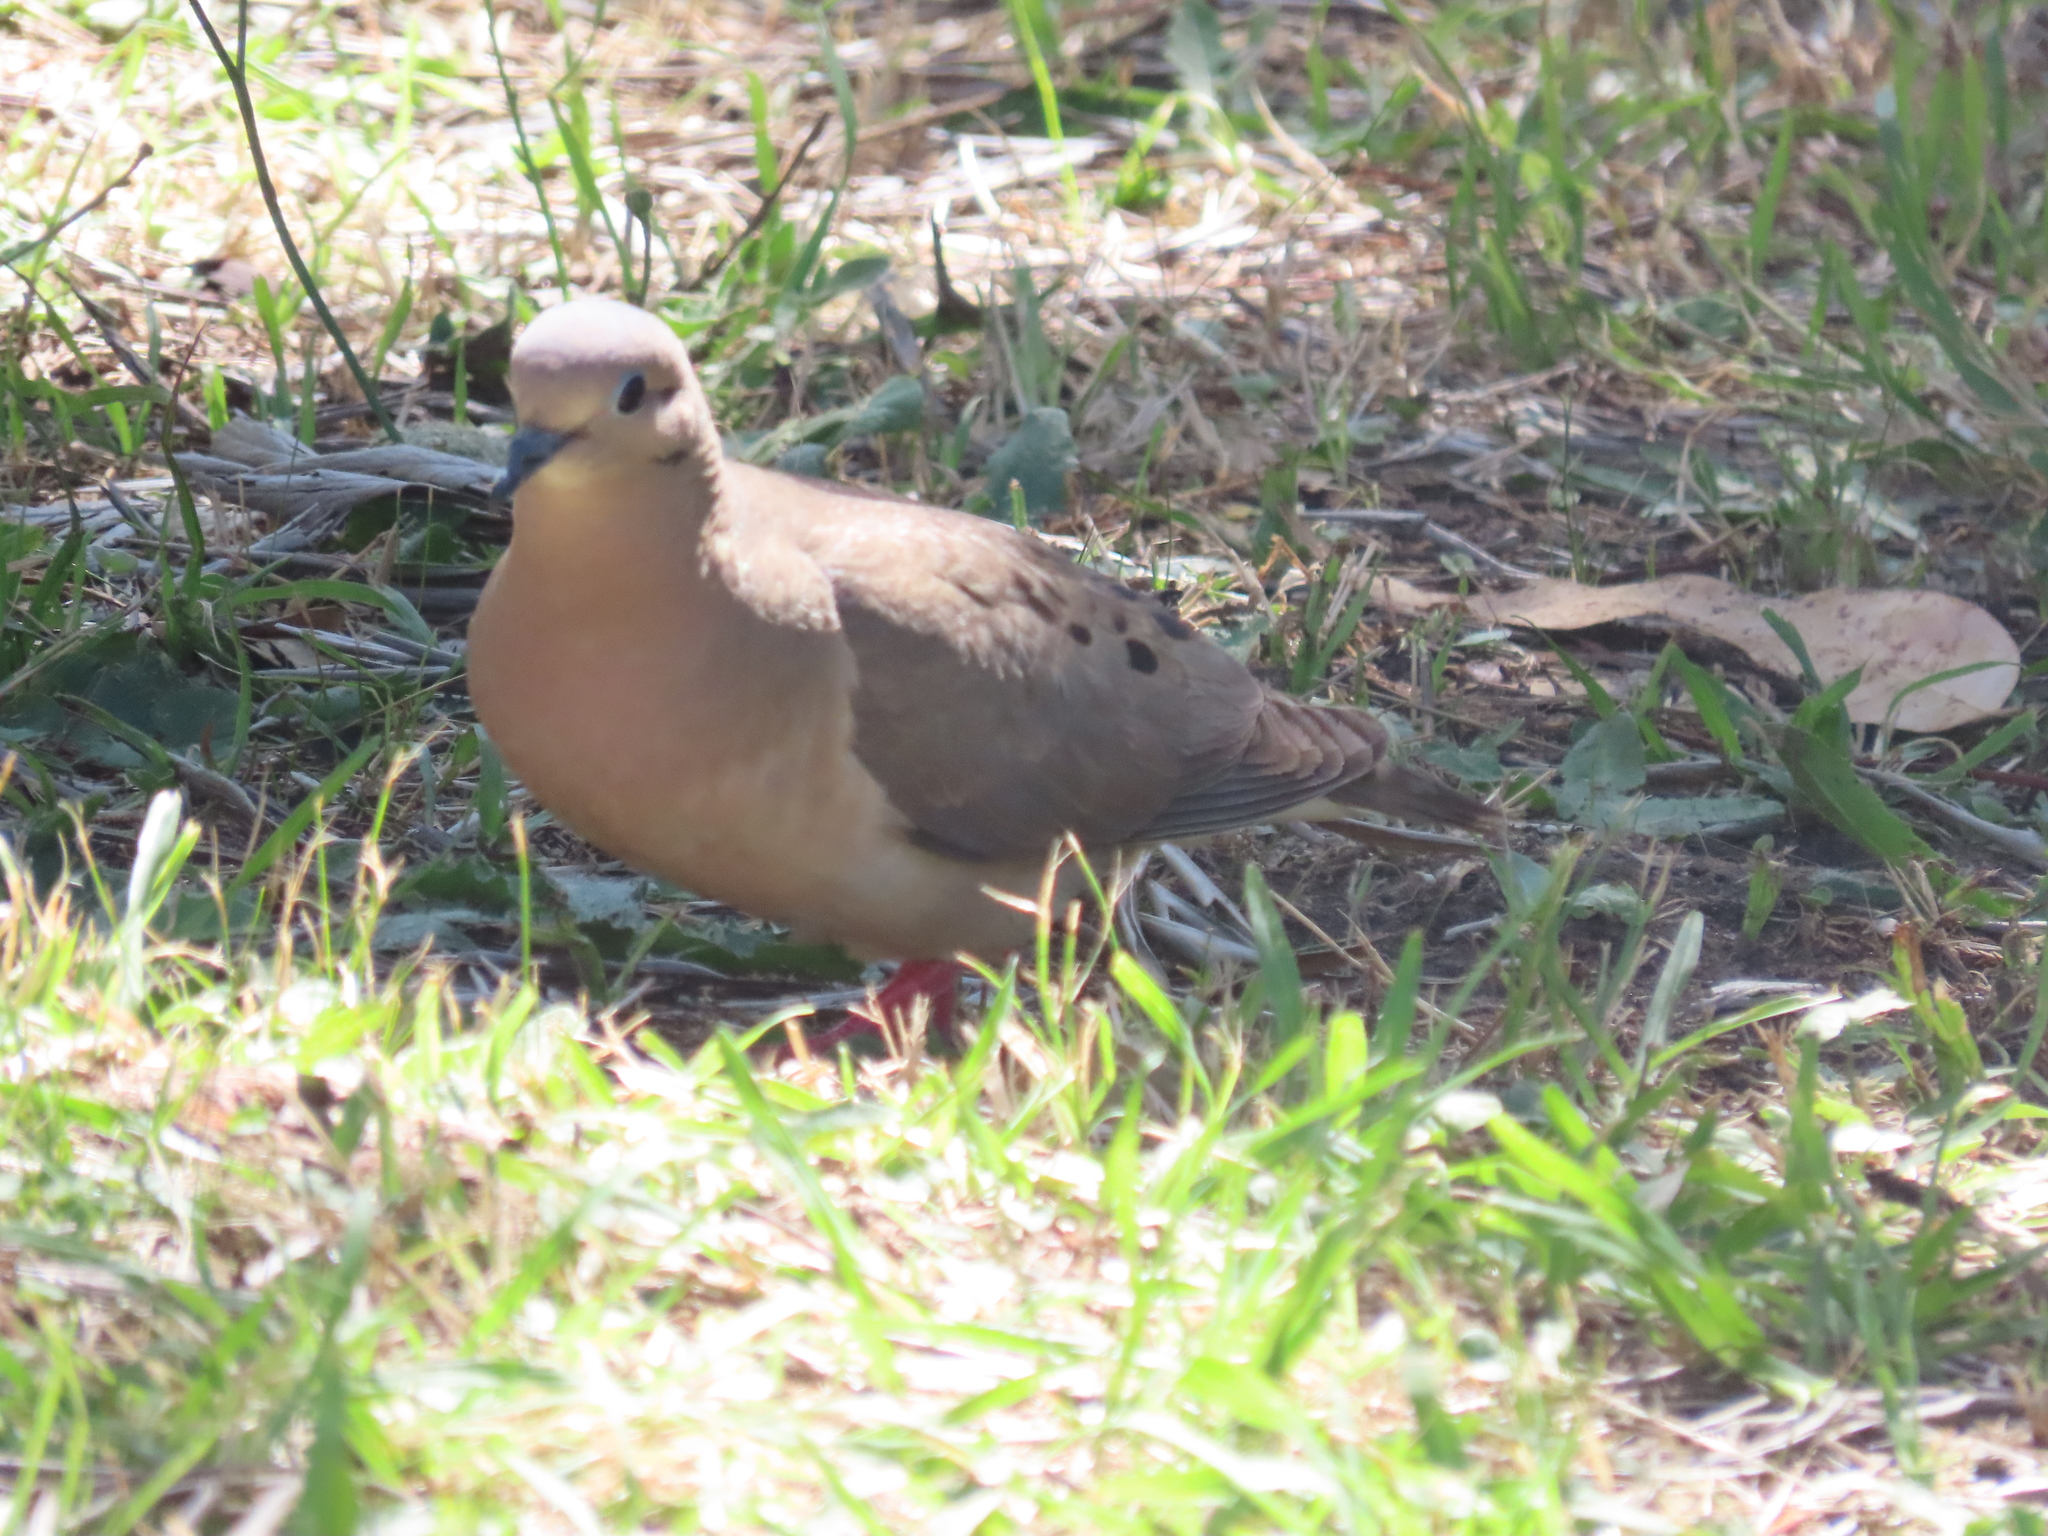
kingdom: Animalia
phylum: Chordata
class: Aves
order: Columbiformes
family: Columbidae
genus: Zenaida
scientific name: Zenaida auriculata
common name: Eared dove
